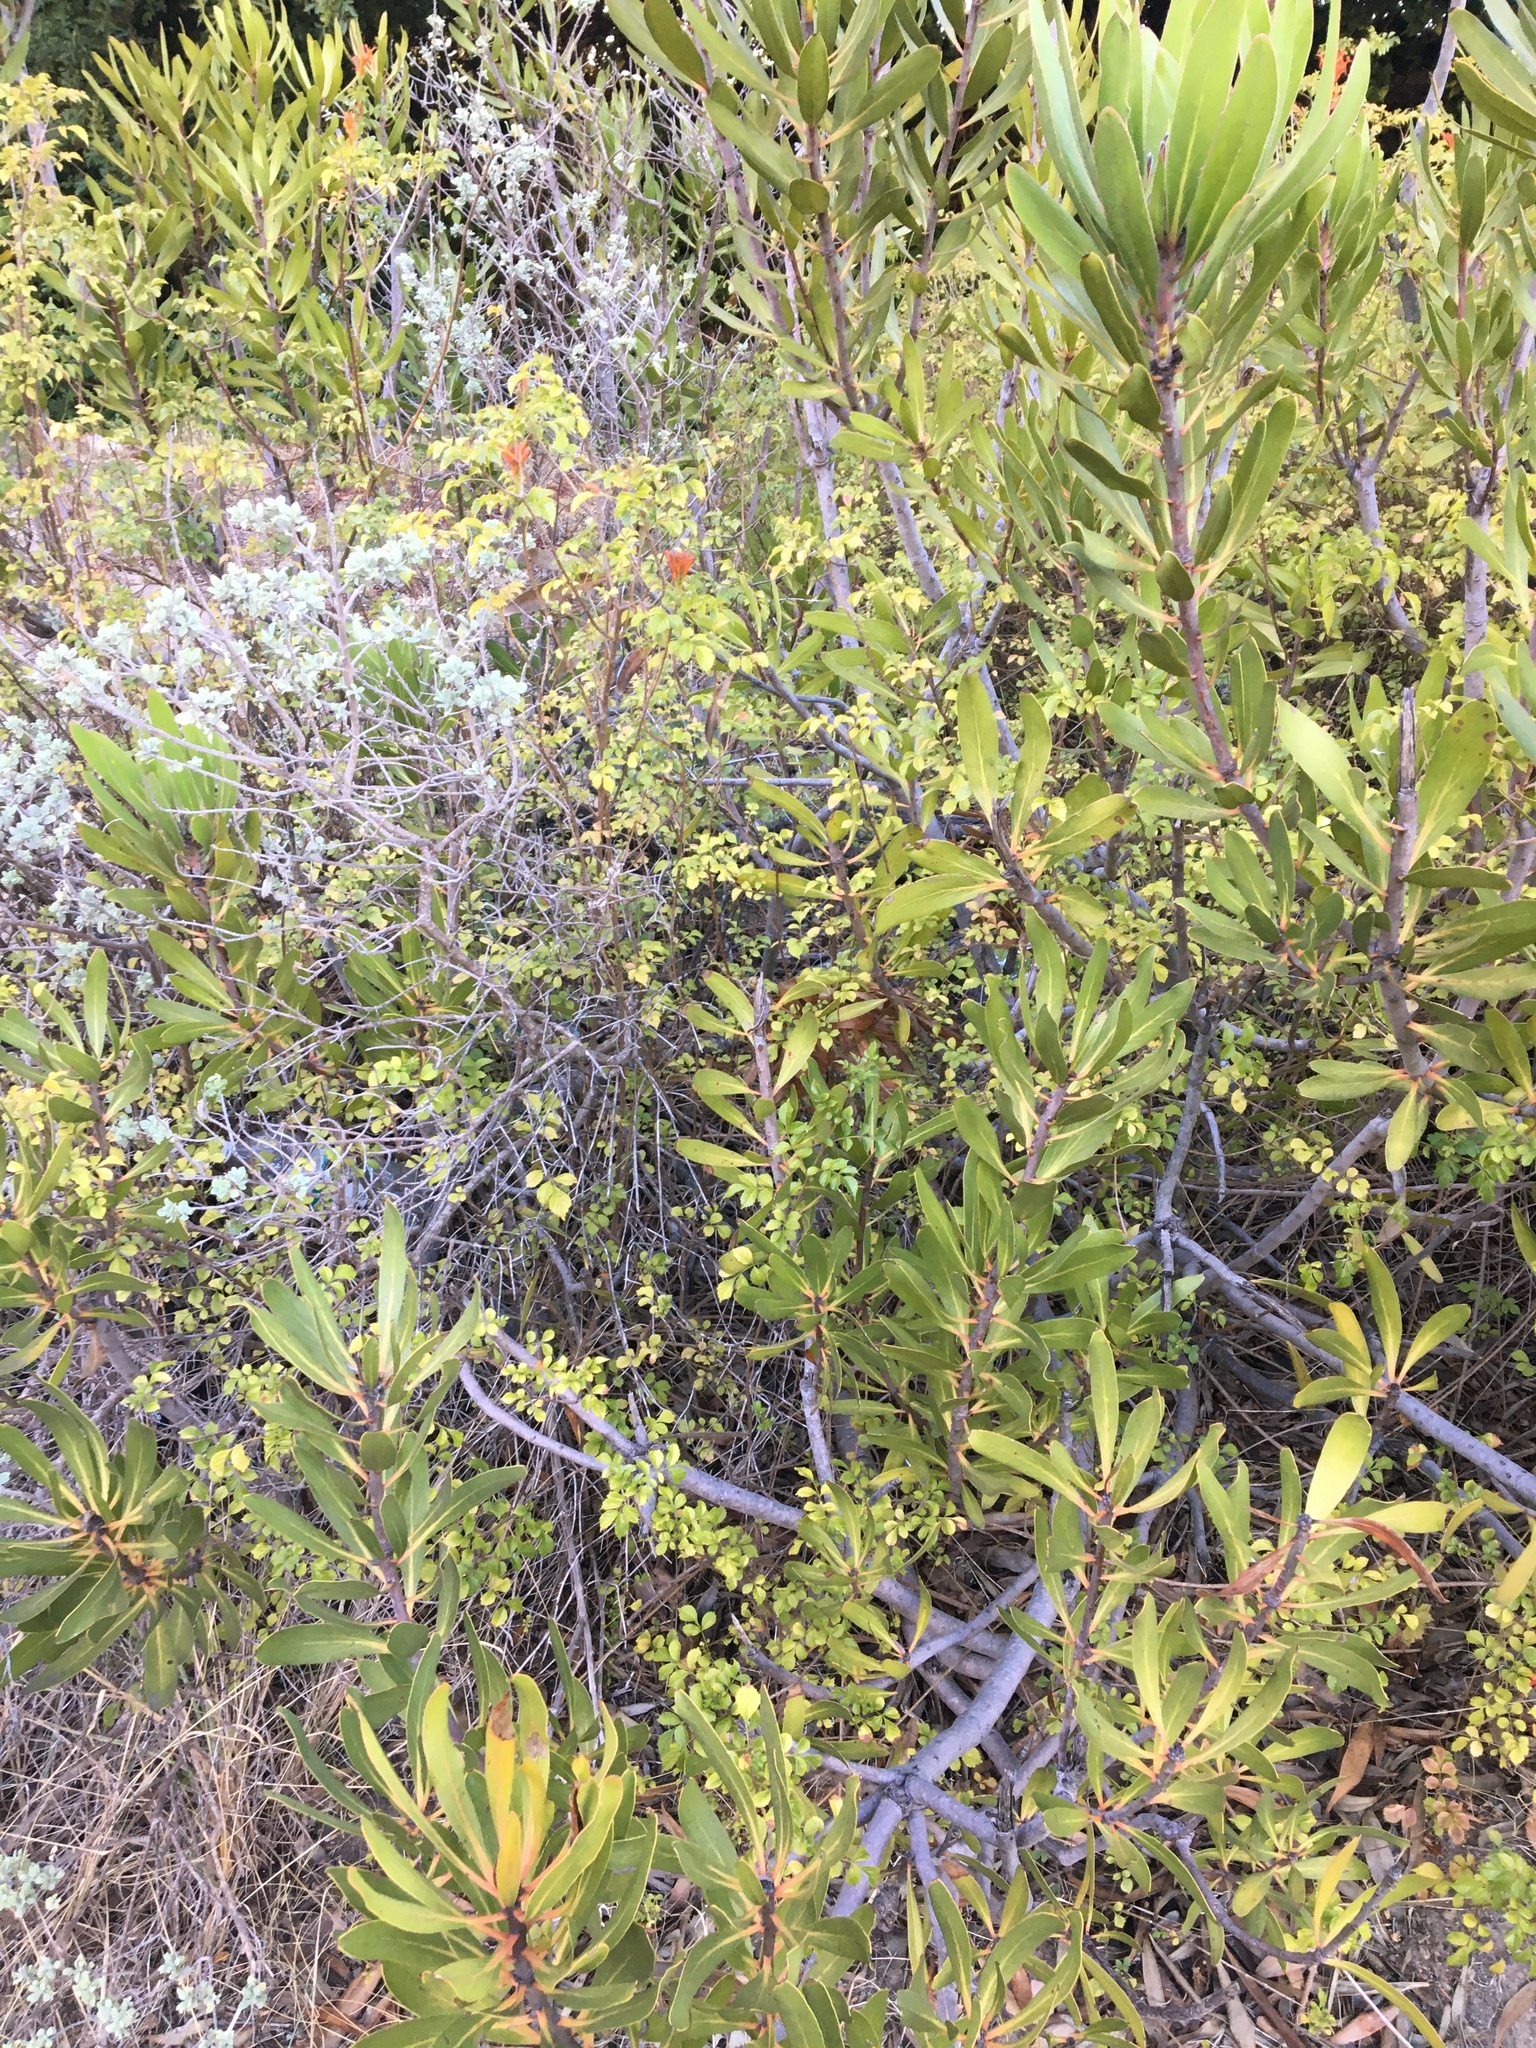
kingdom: Plantae
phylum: Tracheophyta
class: Magnoliopsida
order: Proteales
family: Proteaceae
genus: Protea
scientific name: Protea
